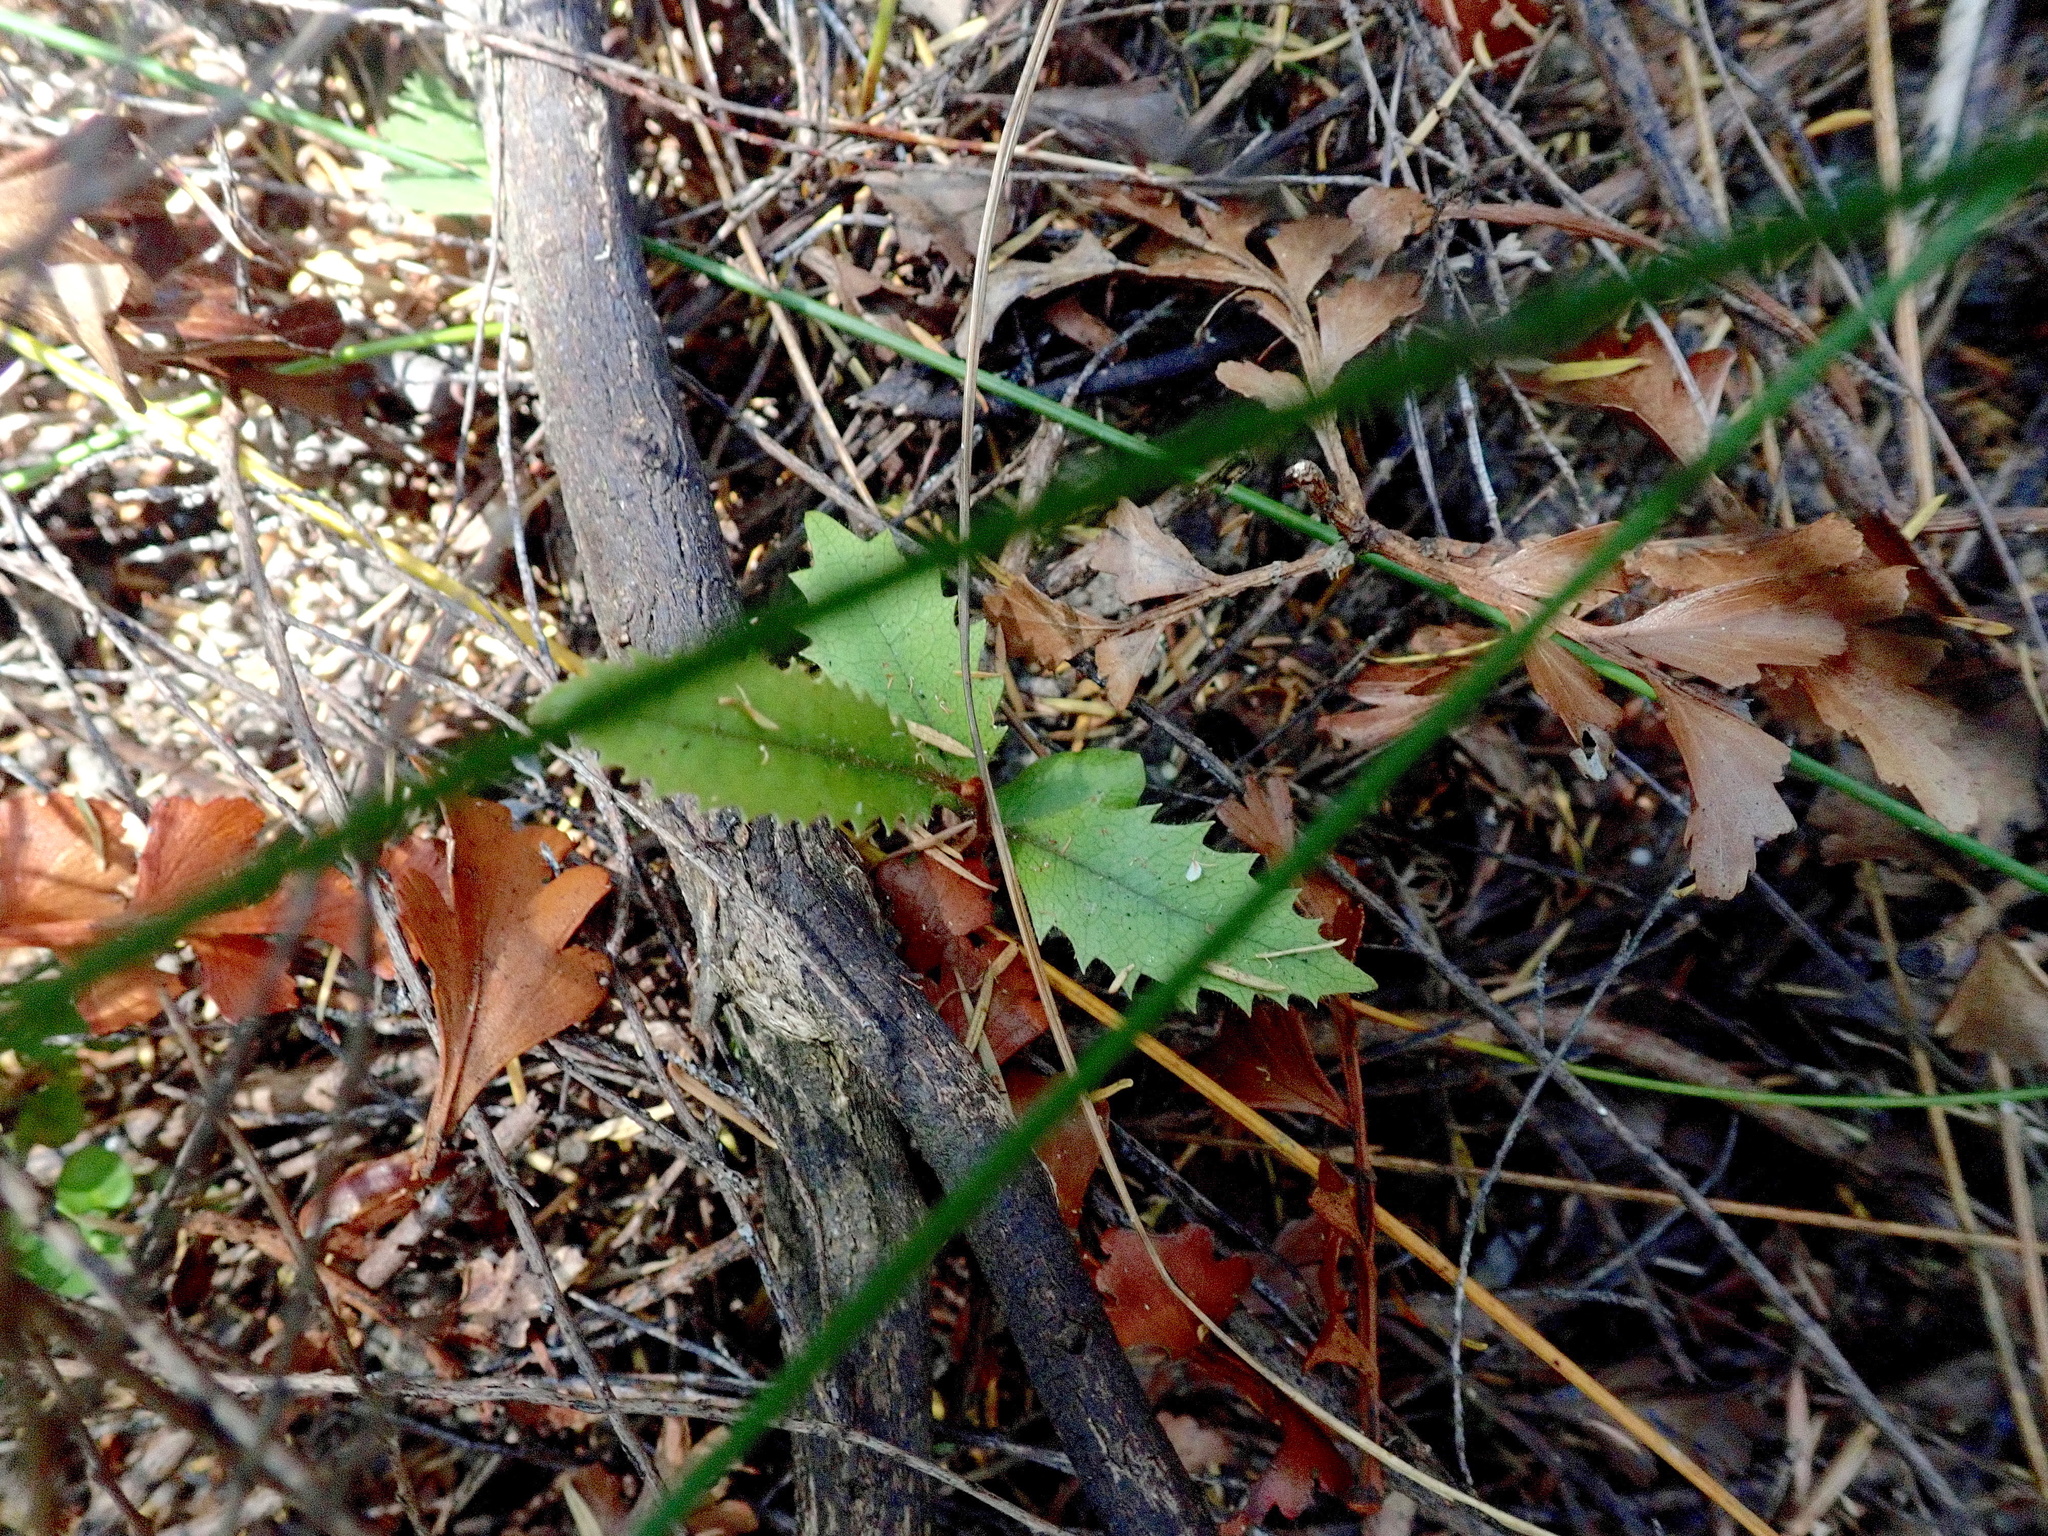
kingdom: Plantae
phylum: Tracheophyta
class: Magnoliopsida
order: Proteales
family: Proteaceae
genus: Knightia
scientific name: Knightia excelsa
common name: New zealand-honeysuckle
